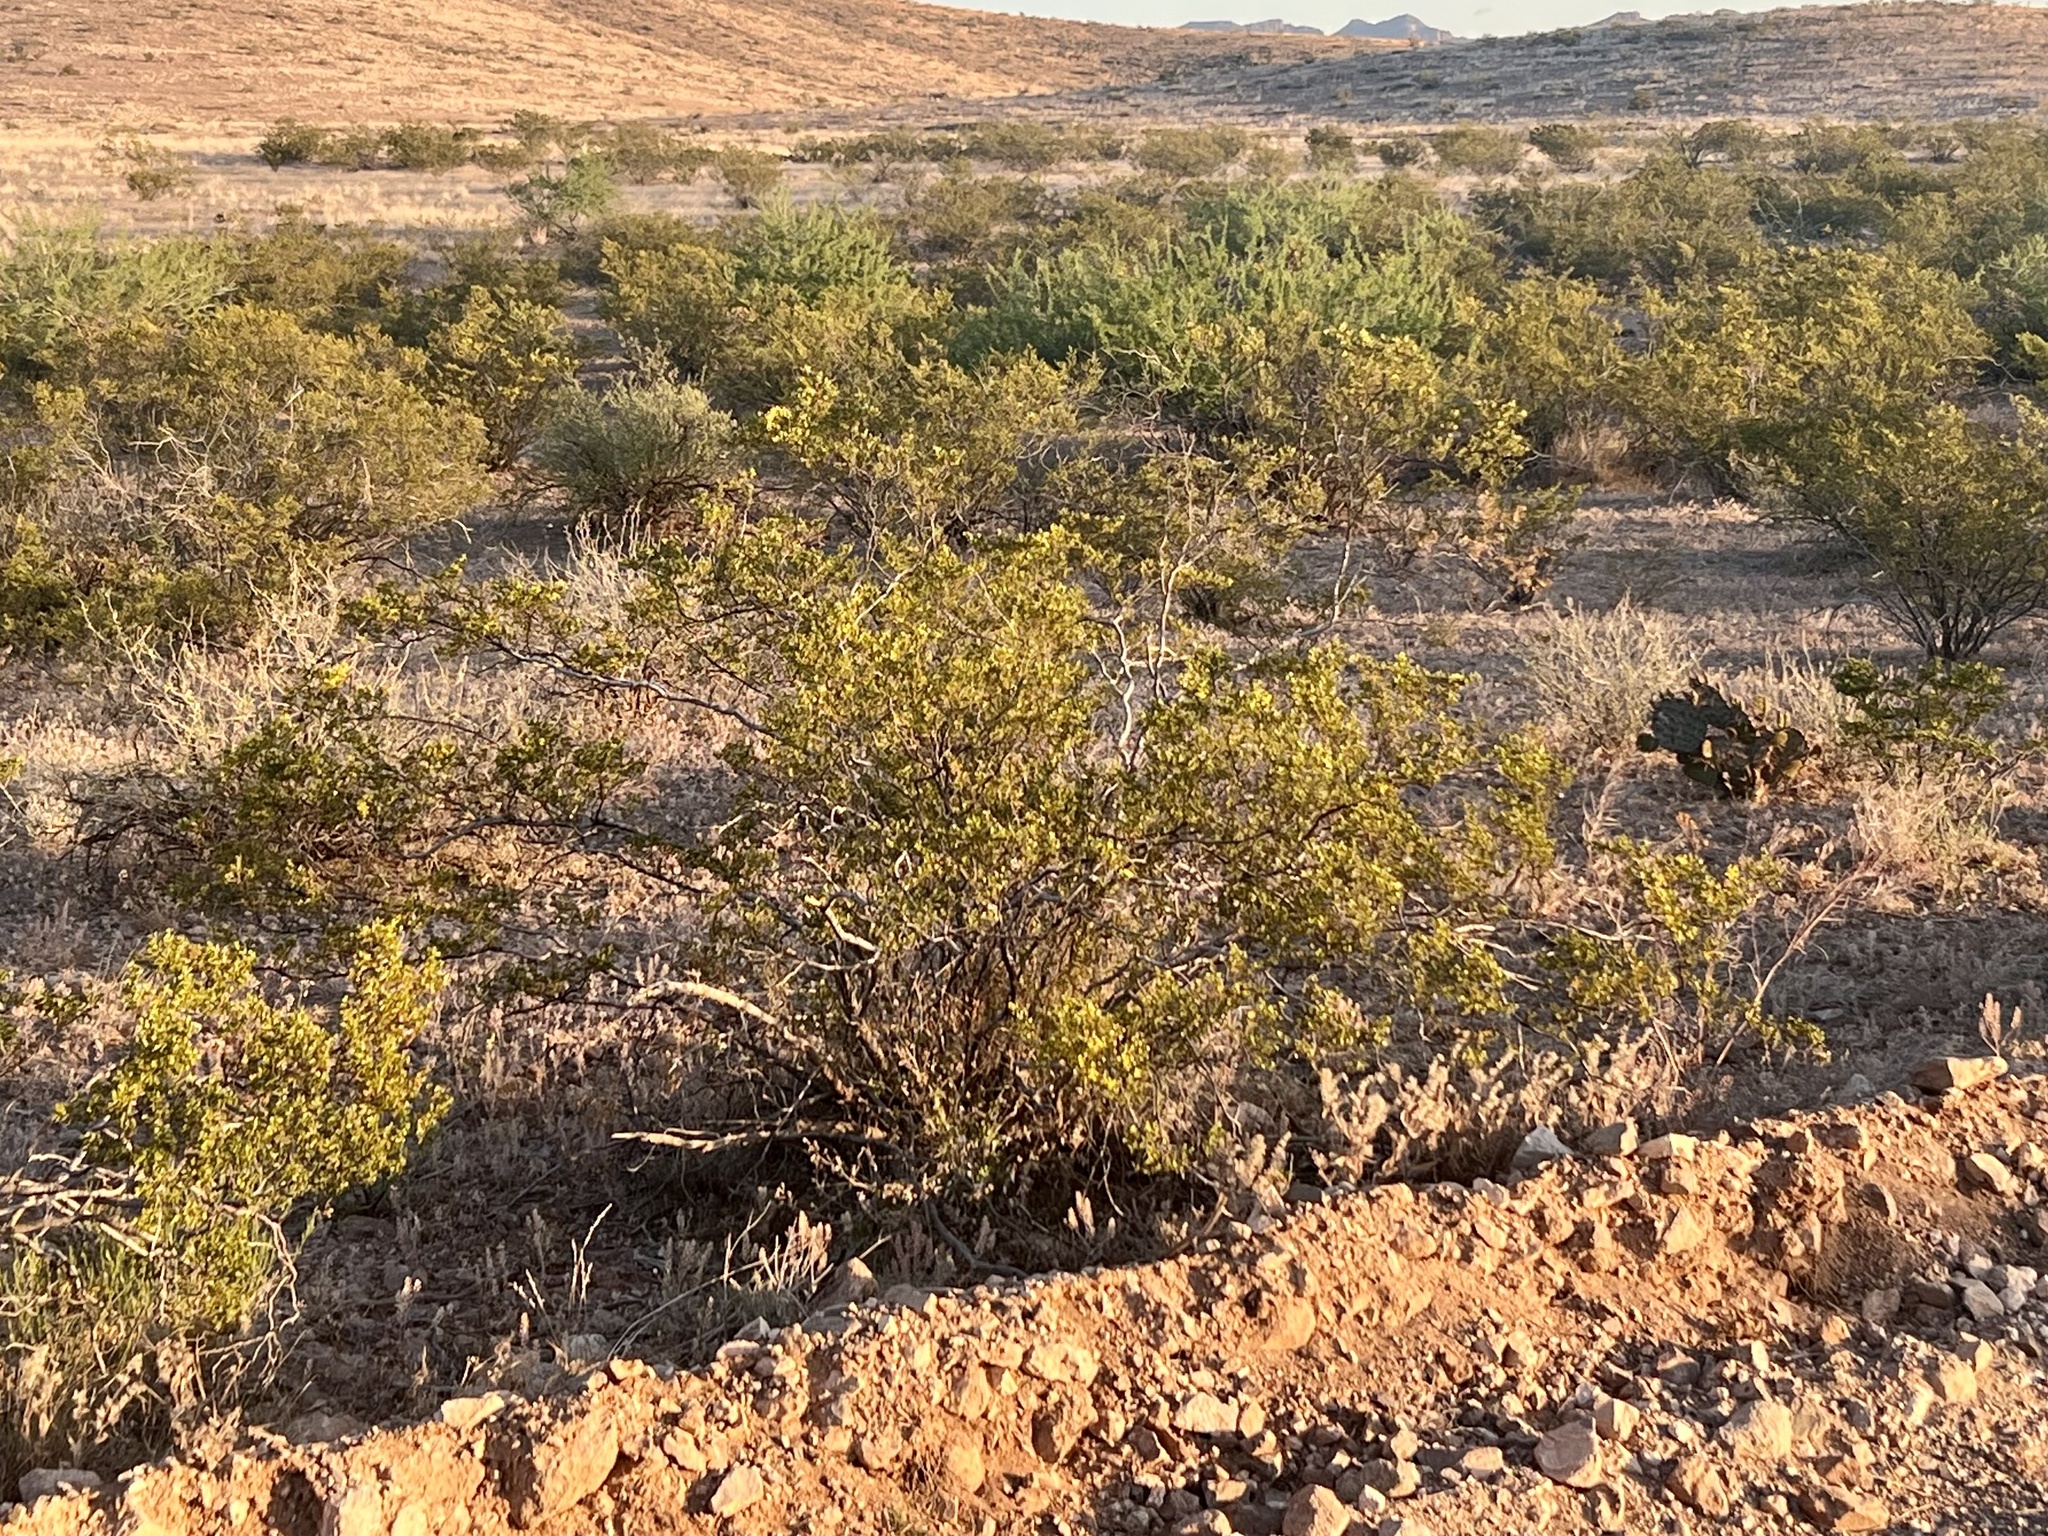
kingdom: Plantae
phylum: Tracheophyta
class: Magnoliopsida
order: Zygophyllales
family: Zygophyllaceae
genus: Larrea
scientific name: Larrea tridentata
